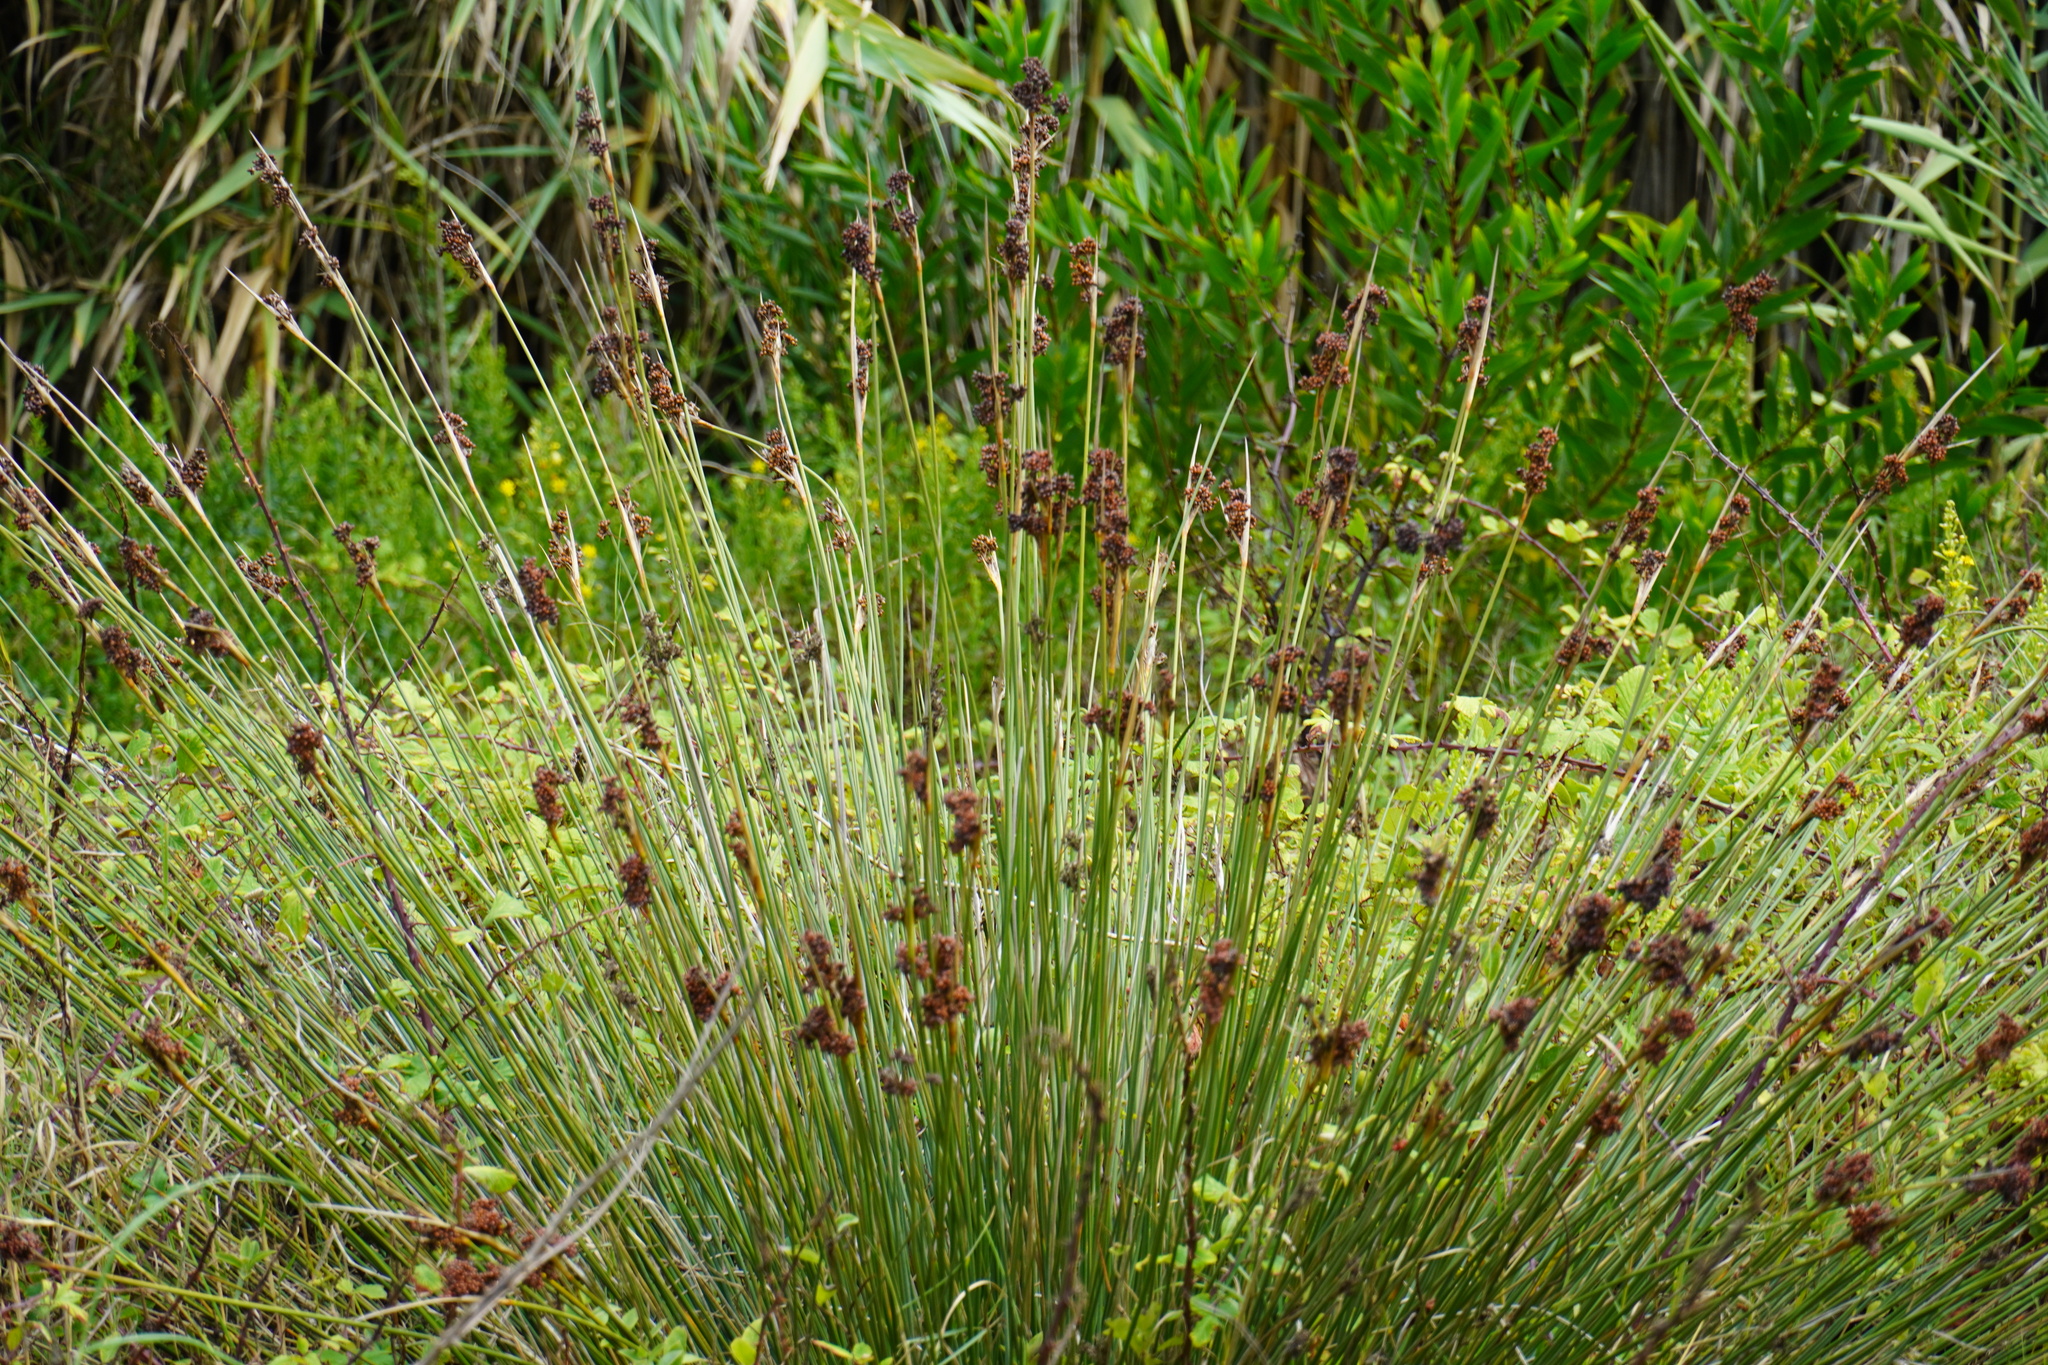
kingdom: Plantae
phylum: Tracheophyta
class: Liliopsida
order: Poales
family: Juncaceae
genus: Juncus
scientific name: Juncus acutus
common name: Sharp rush
